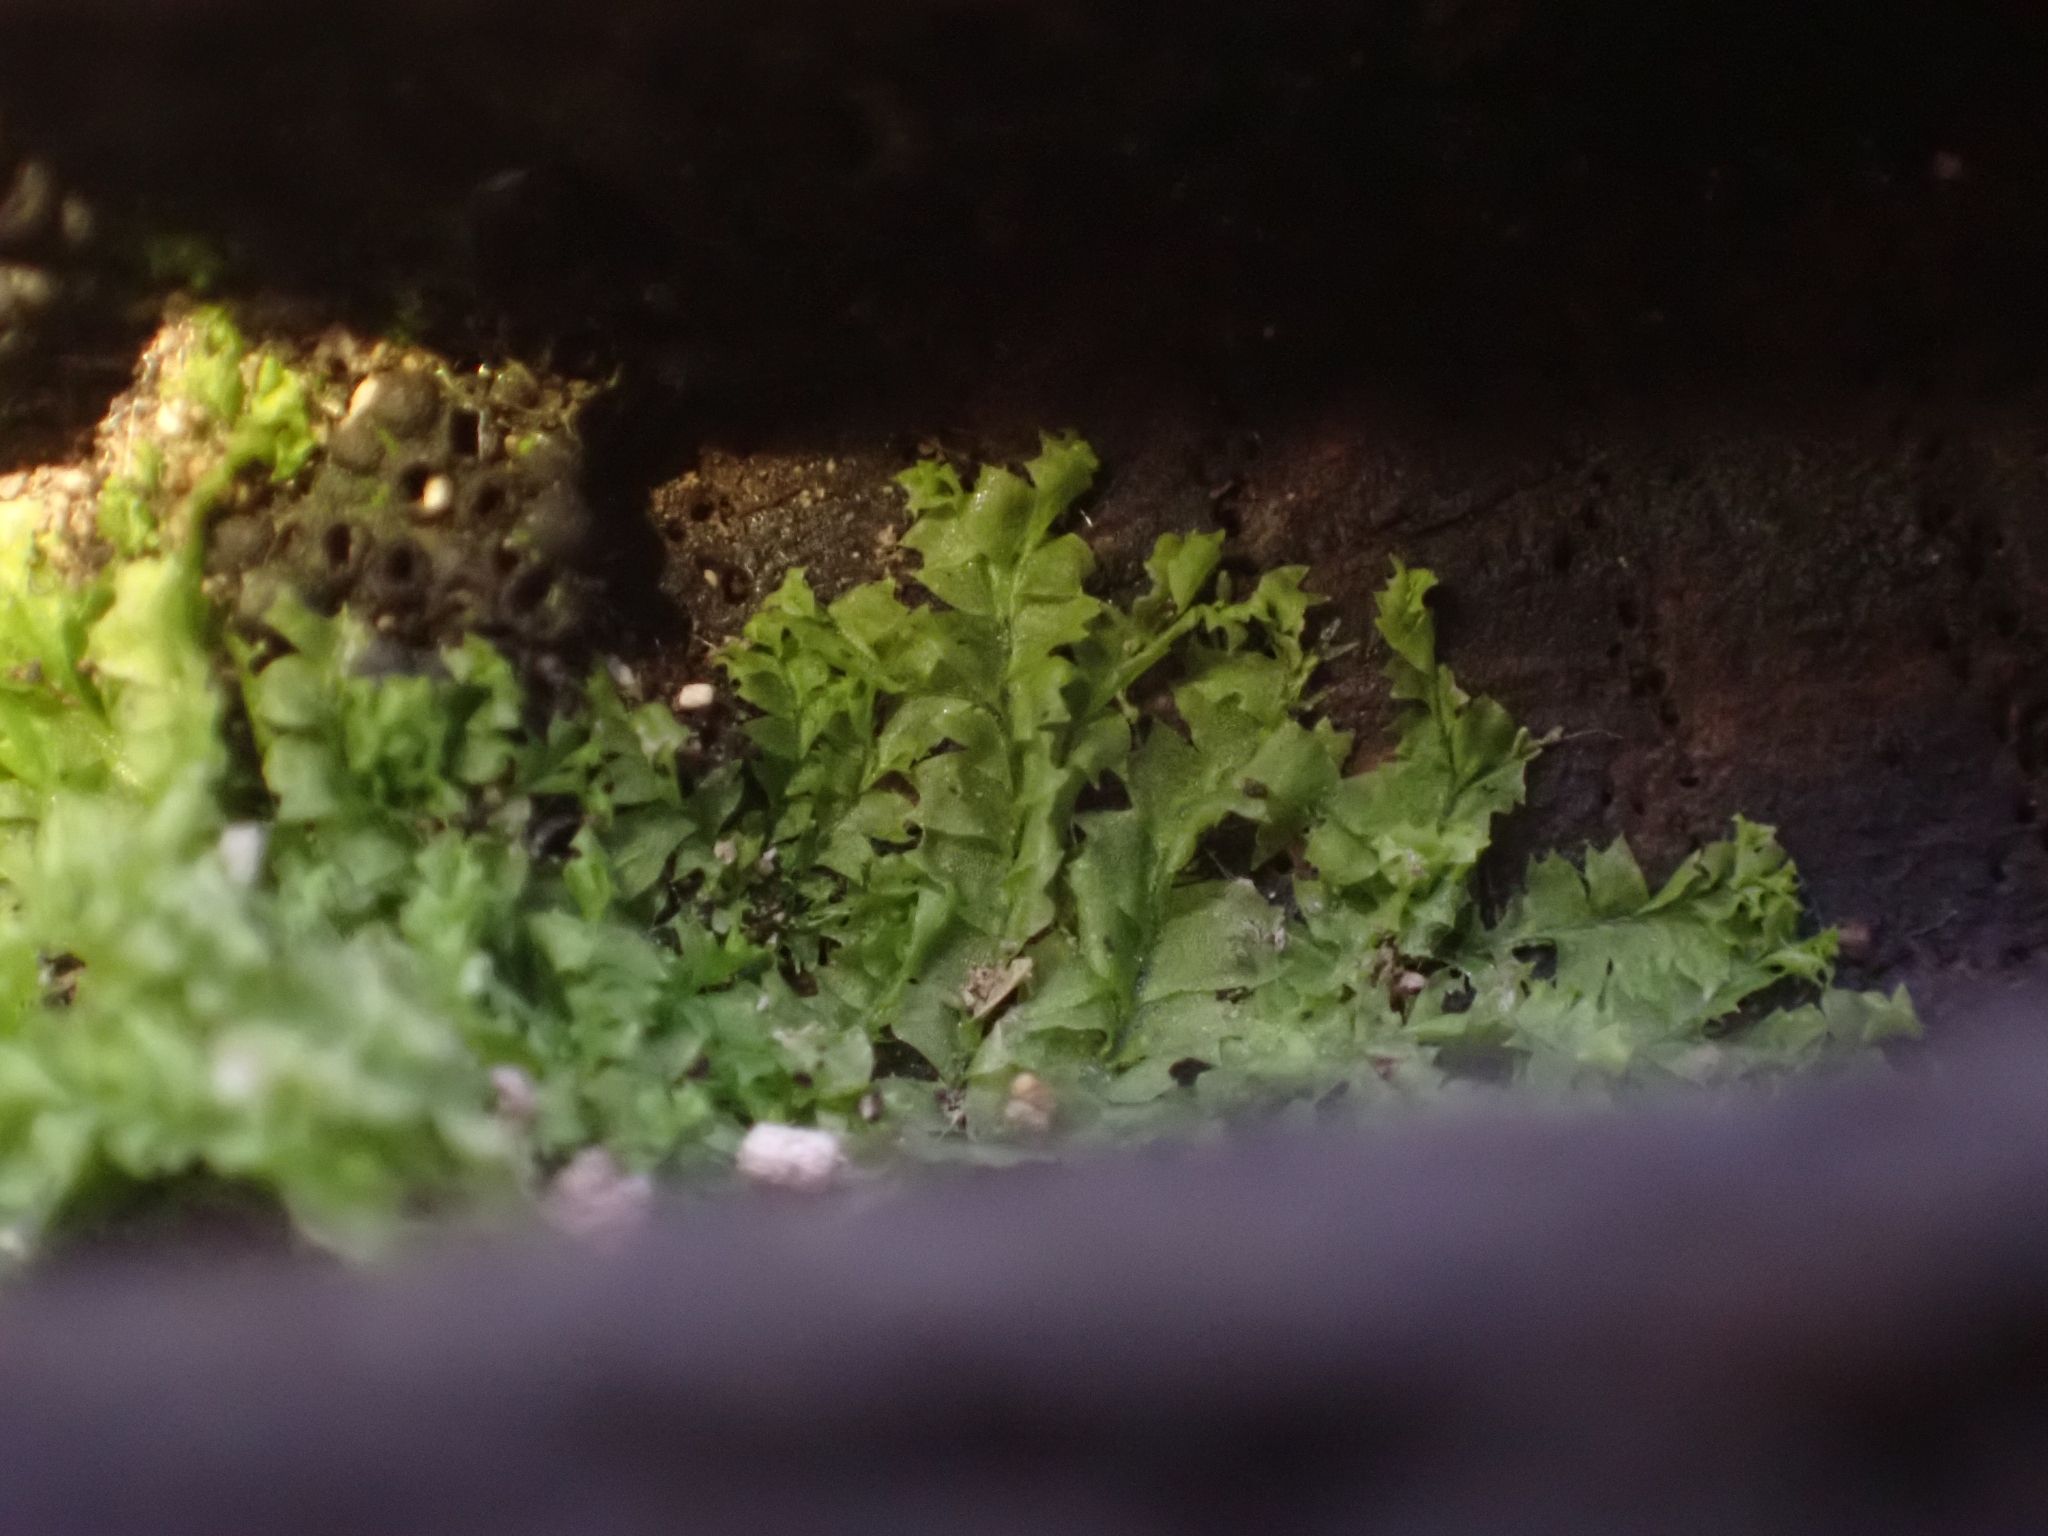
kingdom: Plantae
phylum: Marchantiophyta
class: Jungermanniopsida
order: Jungermanniales
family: Lophocoleaceae
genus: Lophocolea
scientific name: Lophocolea heterophylla
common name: Variable-leaved crestwort
